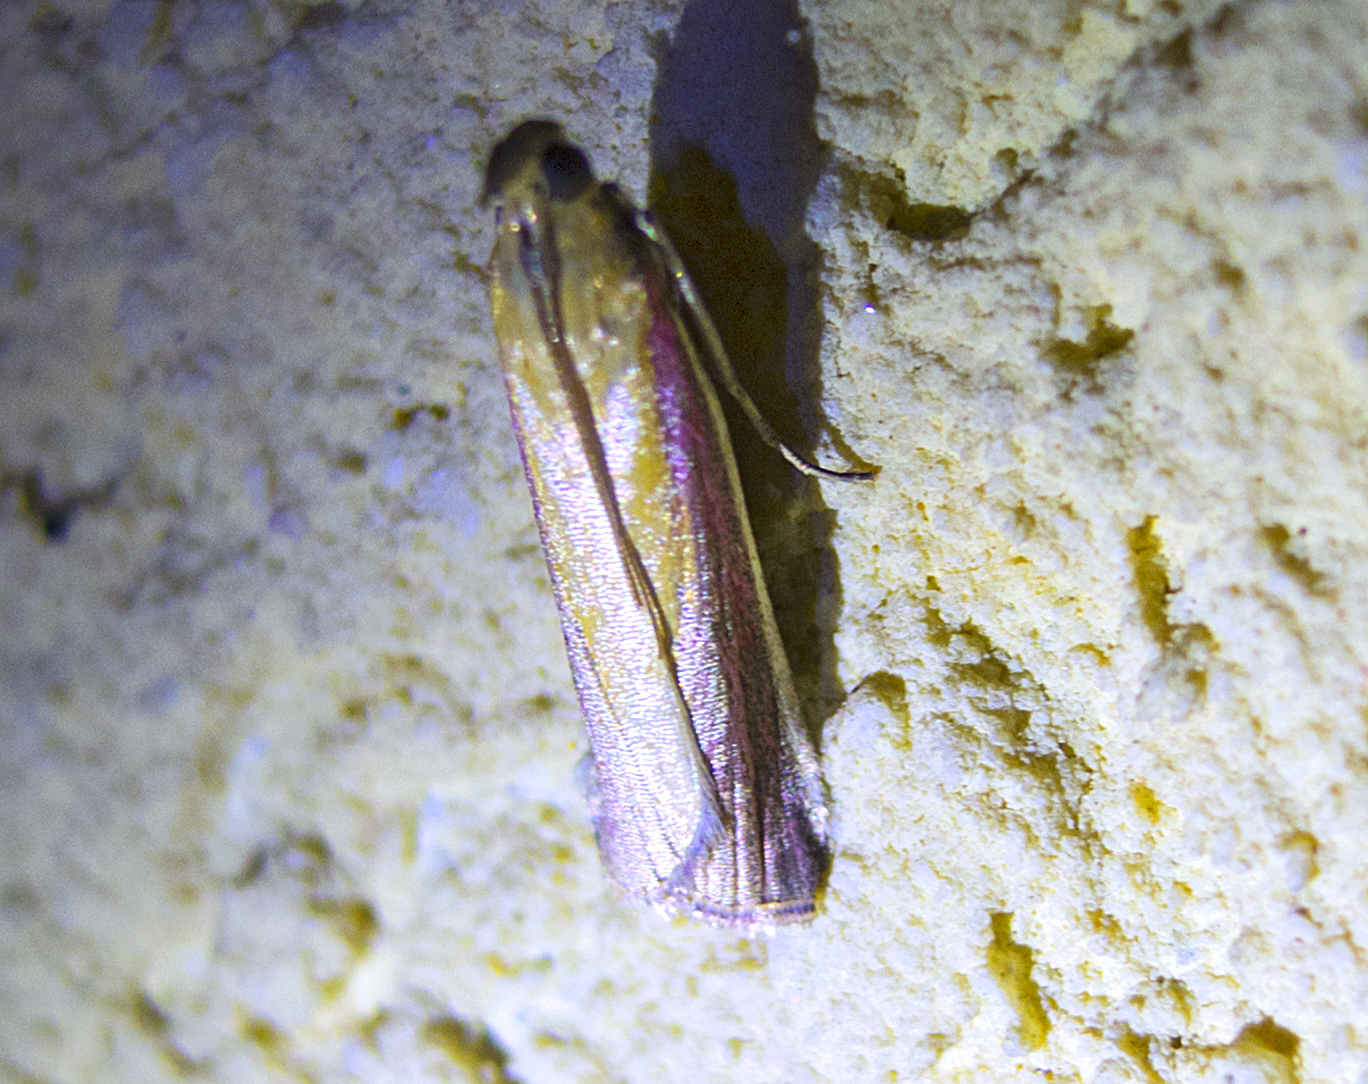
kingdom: Animalia
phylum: Arthropoda
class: Insecta
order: Lepidoptera
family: Pyralidae
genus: Oncocera
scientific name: Oncocera semirubella
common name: Rosy-striped knot-horn
